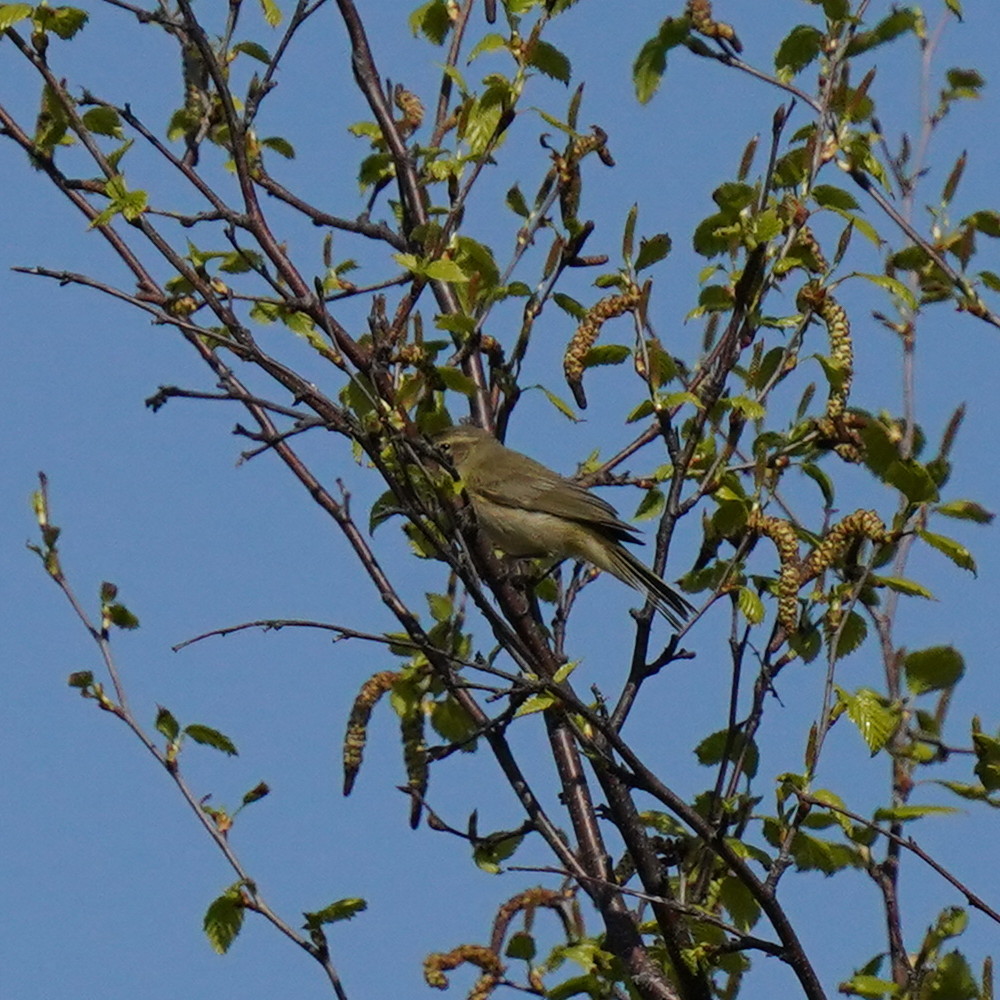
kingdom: Animalia
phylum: Chordata
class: Aves
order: Passeriformes
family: Phylloscopidae
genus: Phylloscopus
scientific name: Phylloscopus collybita
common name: Common chiffchaff
